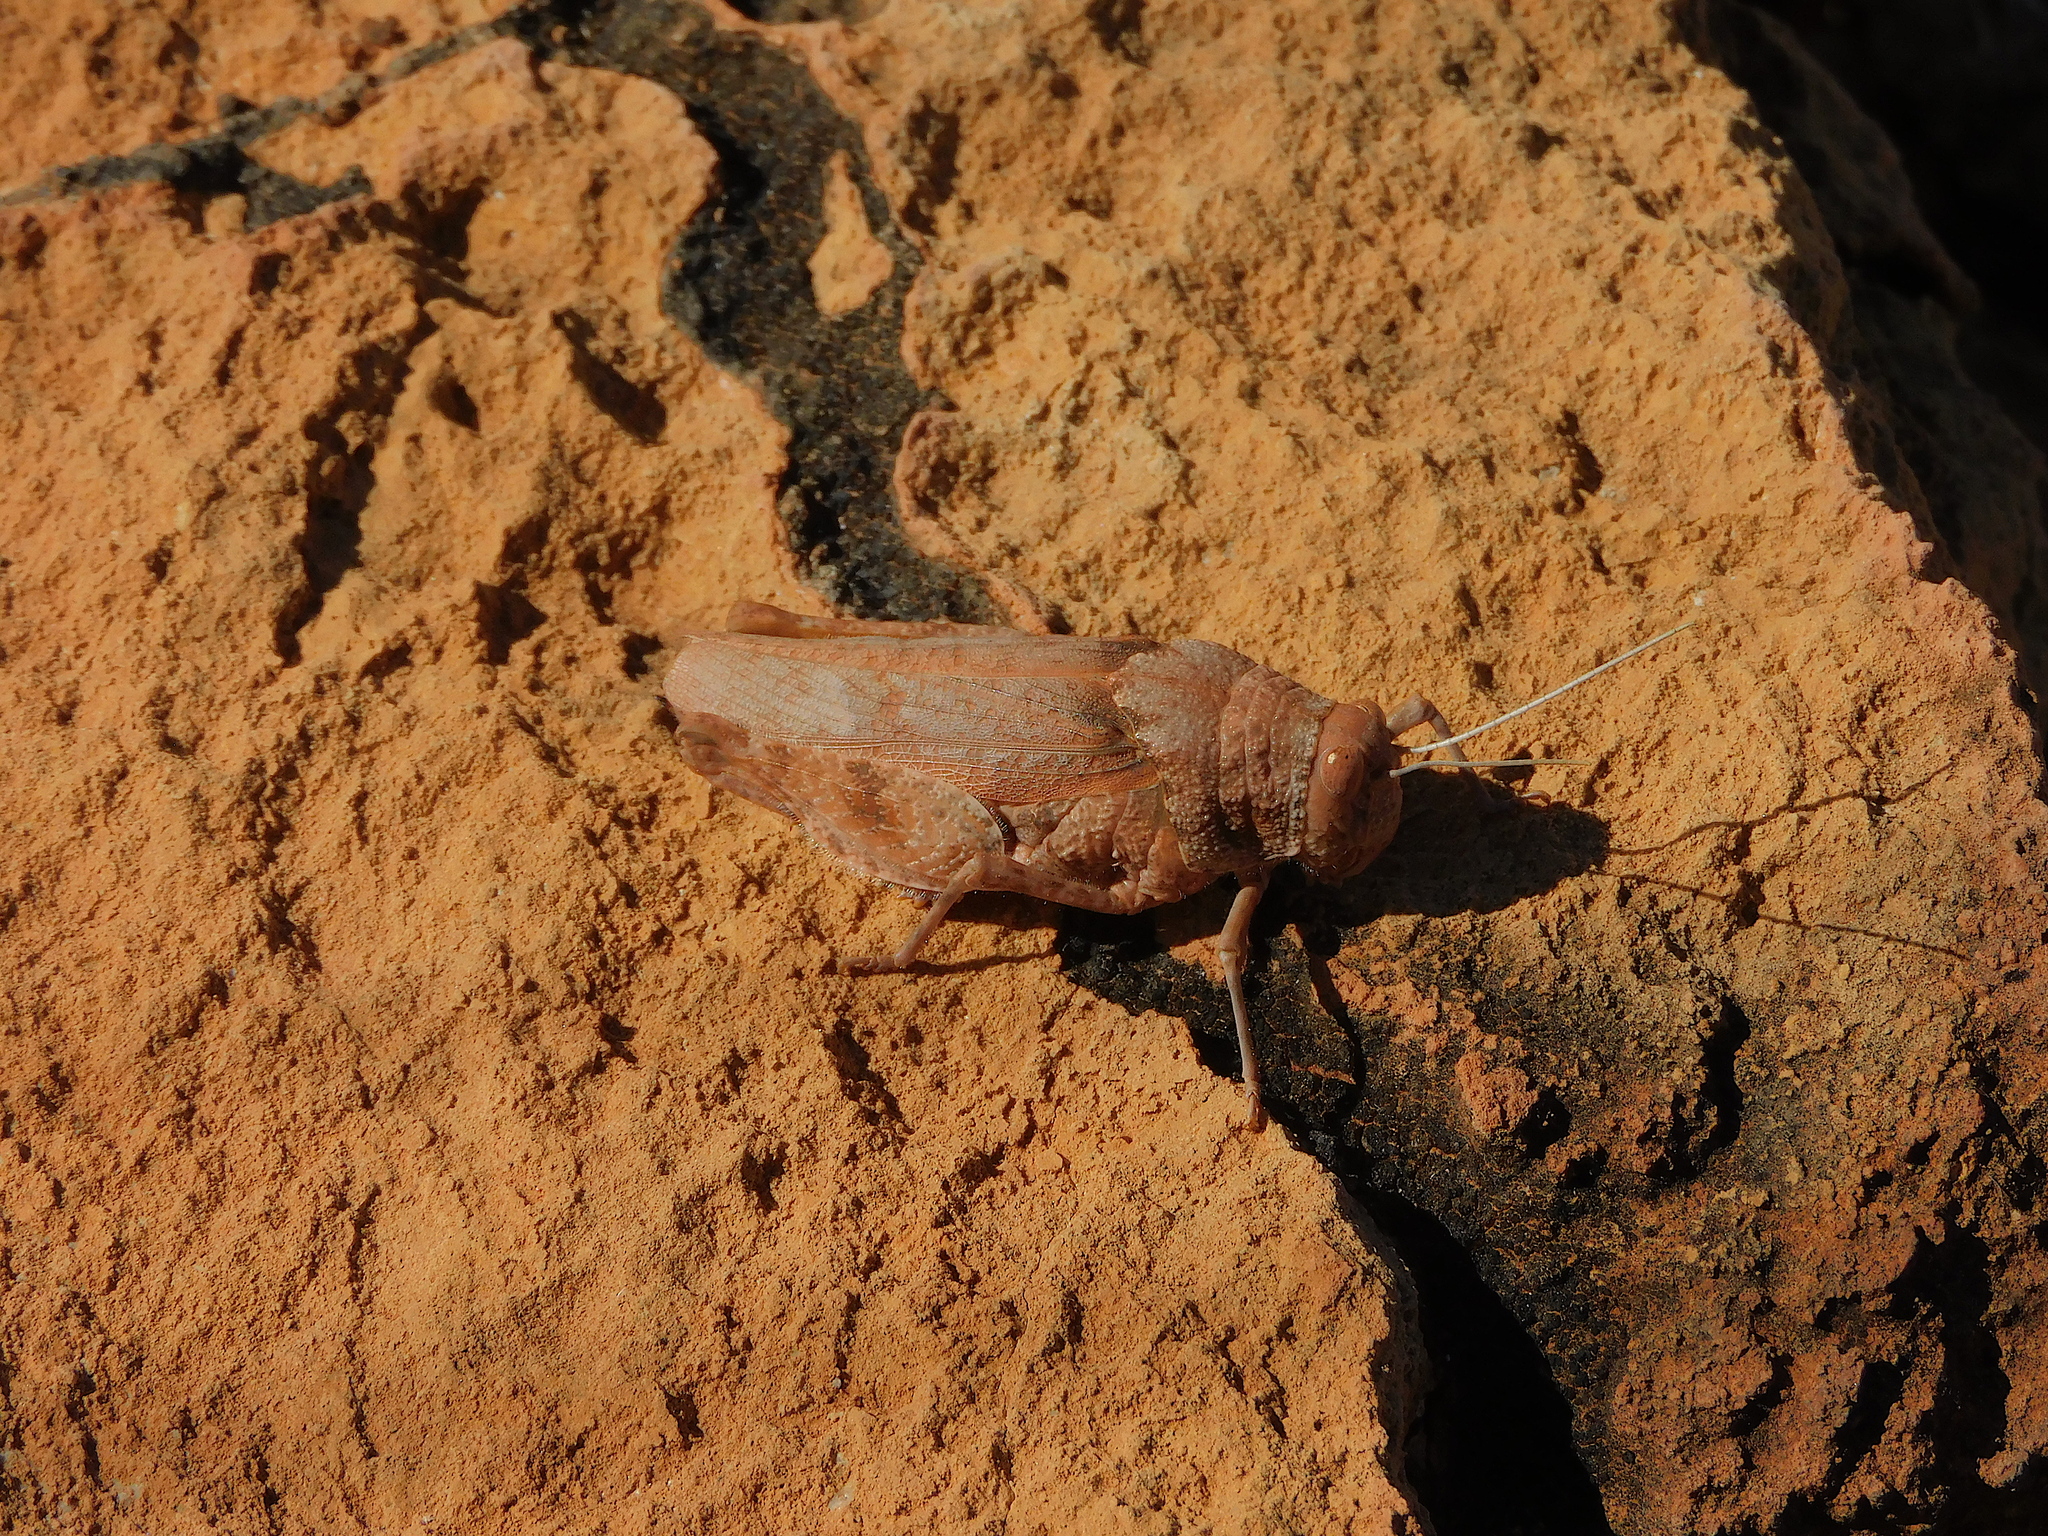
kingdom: Animalia
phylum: Arthropoda
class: Insecta
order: Orthoptera
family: Acrididae
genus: Buforania
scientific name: Buforania crassa
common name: Common toadhopper
